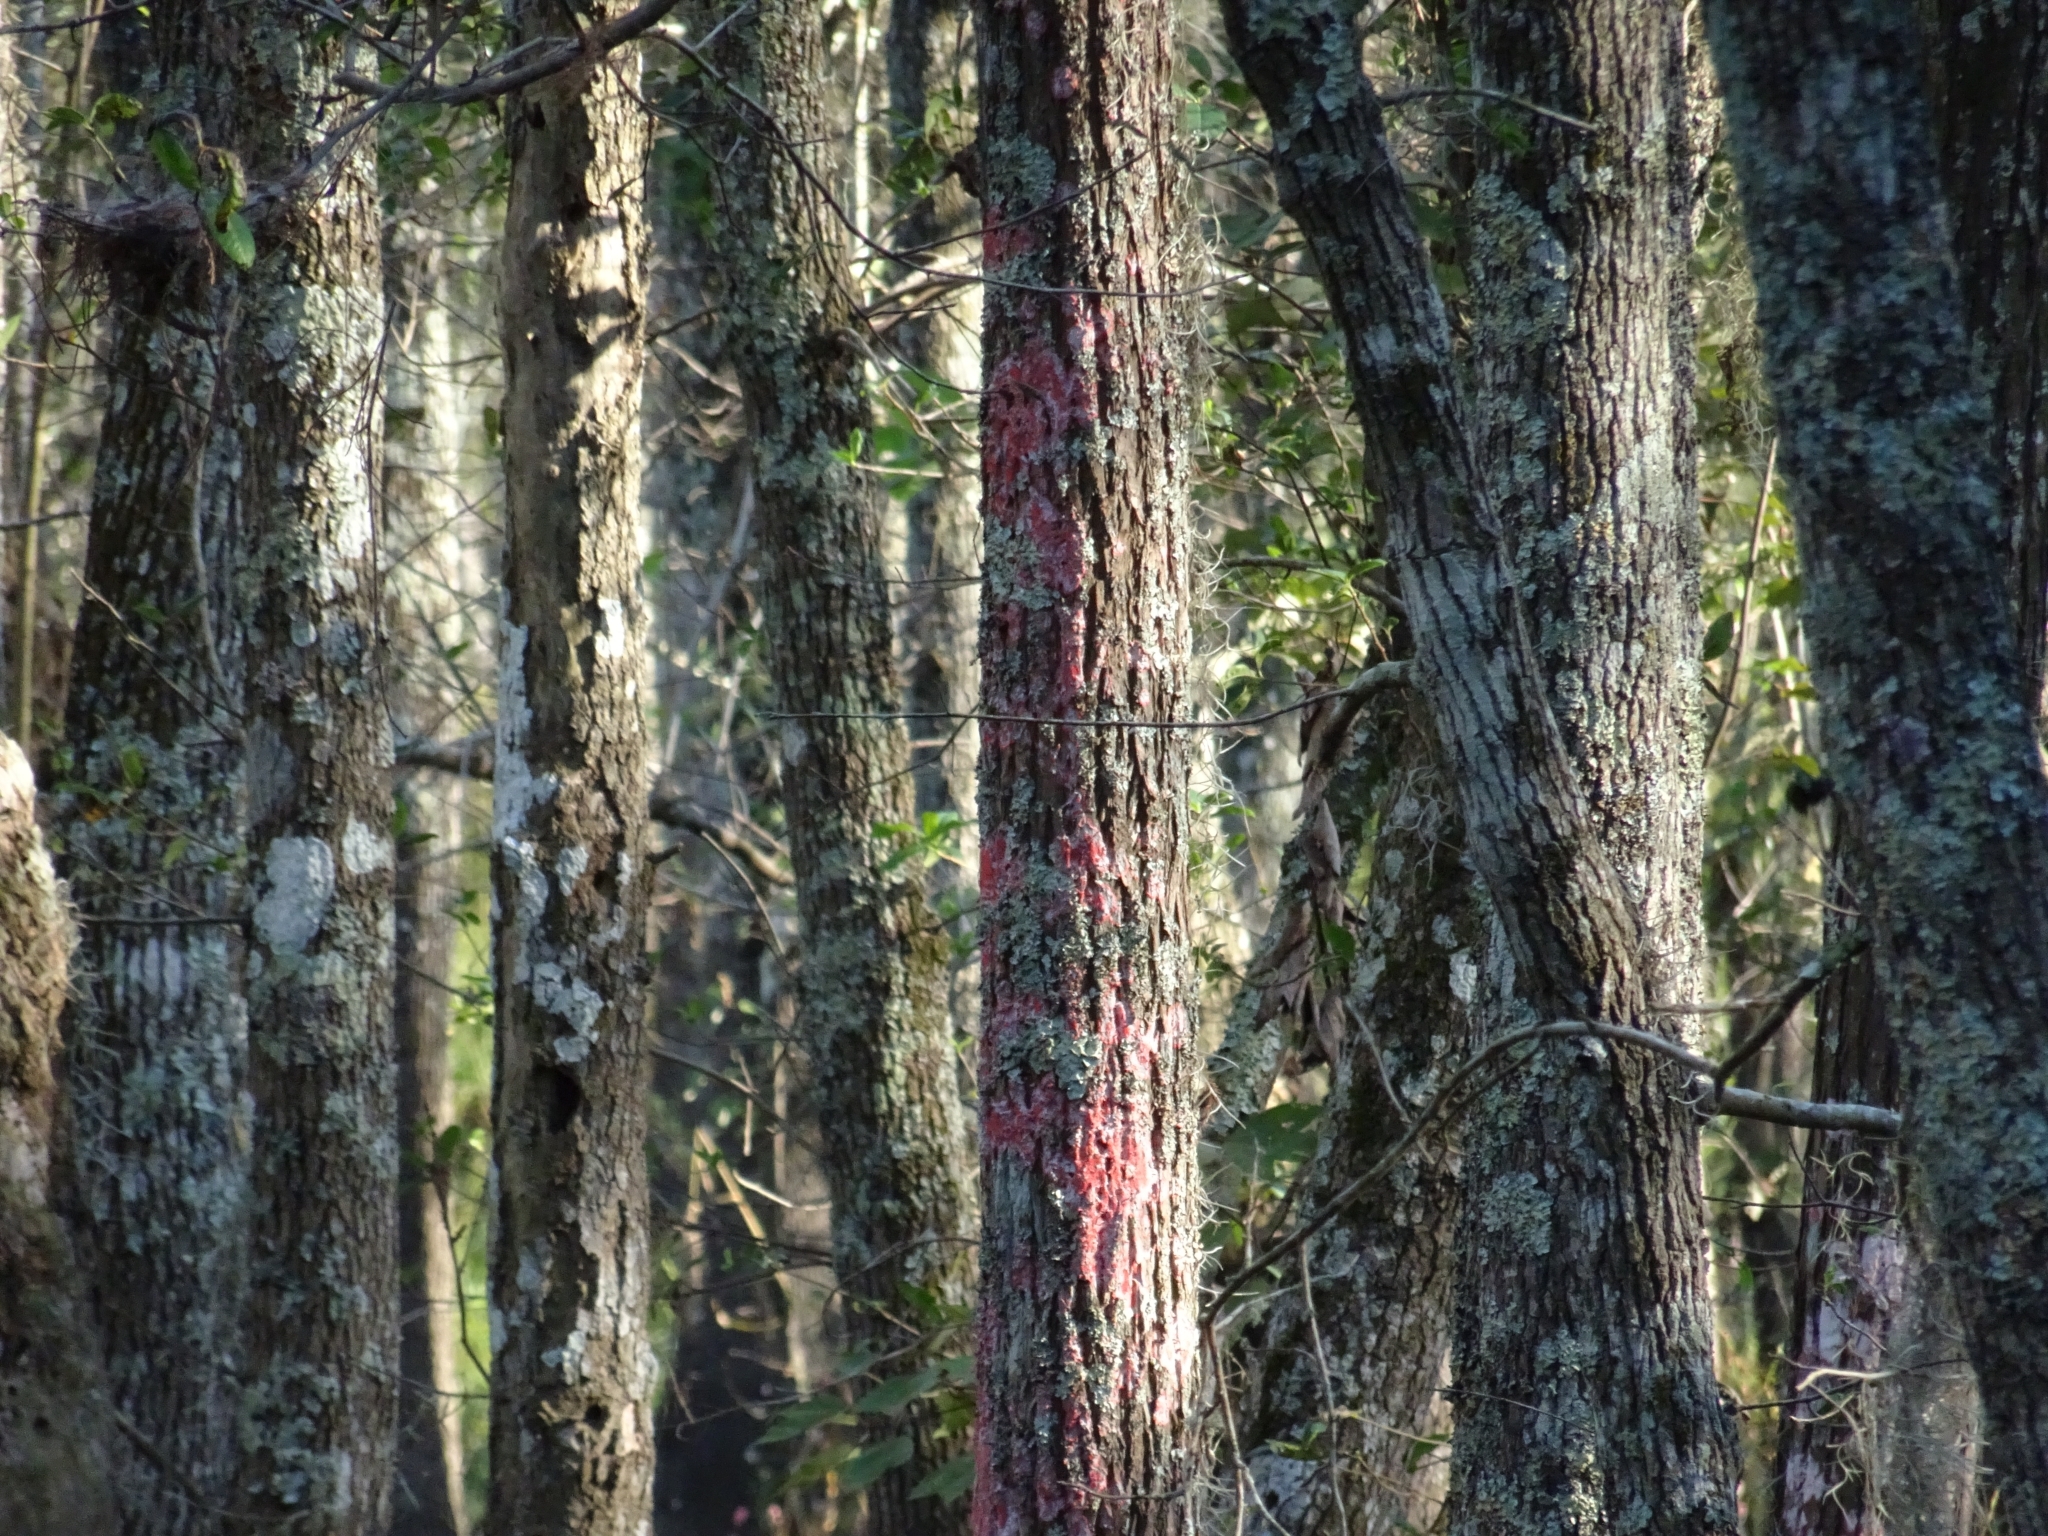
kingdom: Fungi
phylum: Ascomycota
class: Arthoniomycetes
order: Arthoniales
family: Arthoniaceae
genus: Herpothallon
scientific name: Herpothallon rubrocinctum
